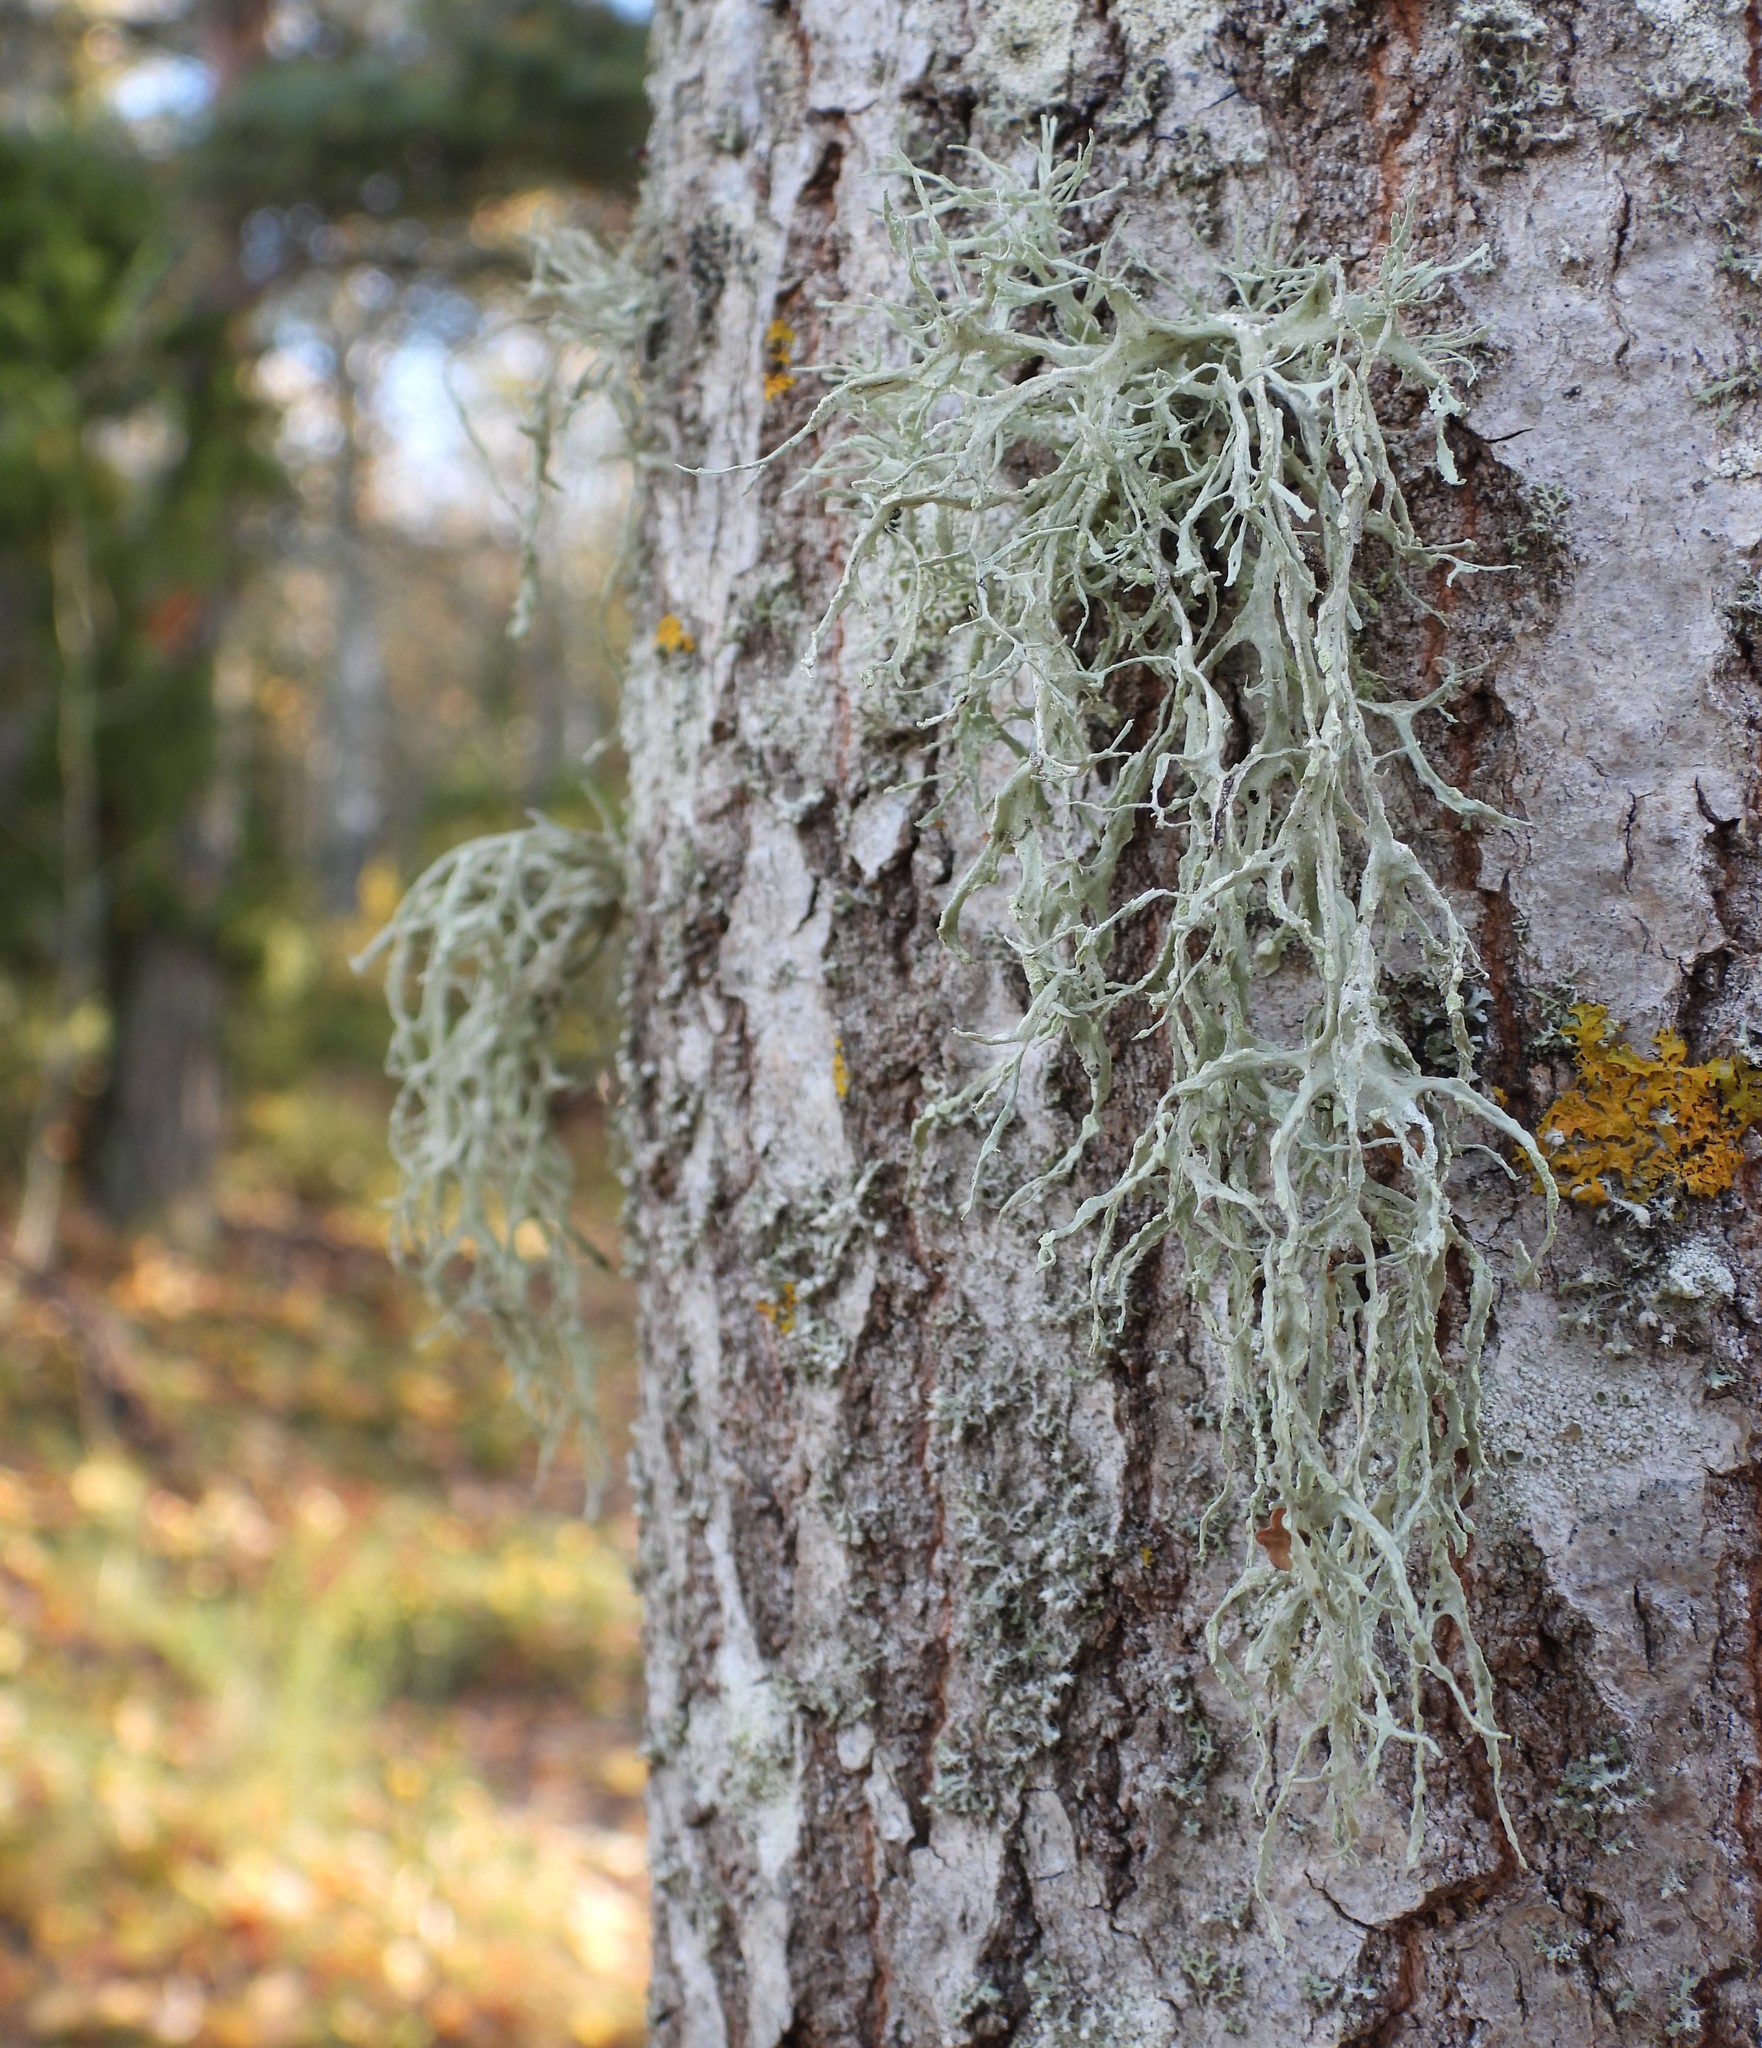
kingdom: Fungi
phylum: Ascomycota
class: Lecanoromycetes
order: Lecanorales
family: Ramalinaceae
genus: Ramalina
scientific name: Ramalina farinacea
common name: Farinose cartilage lichen
